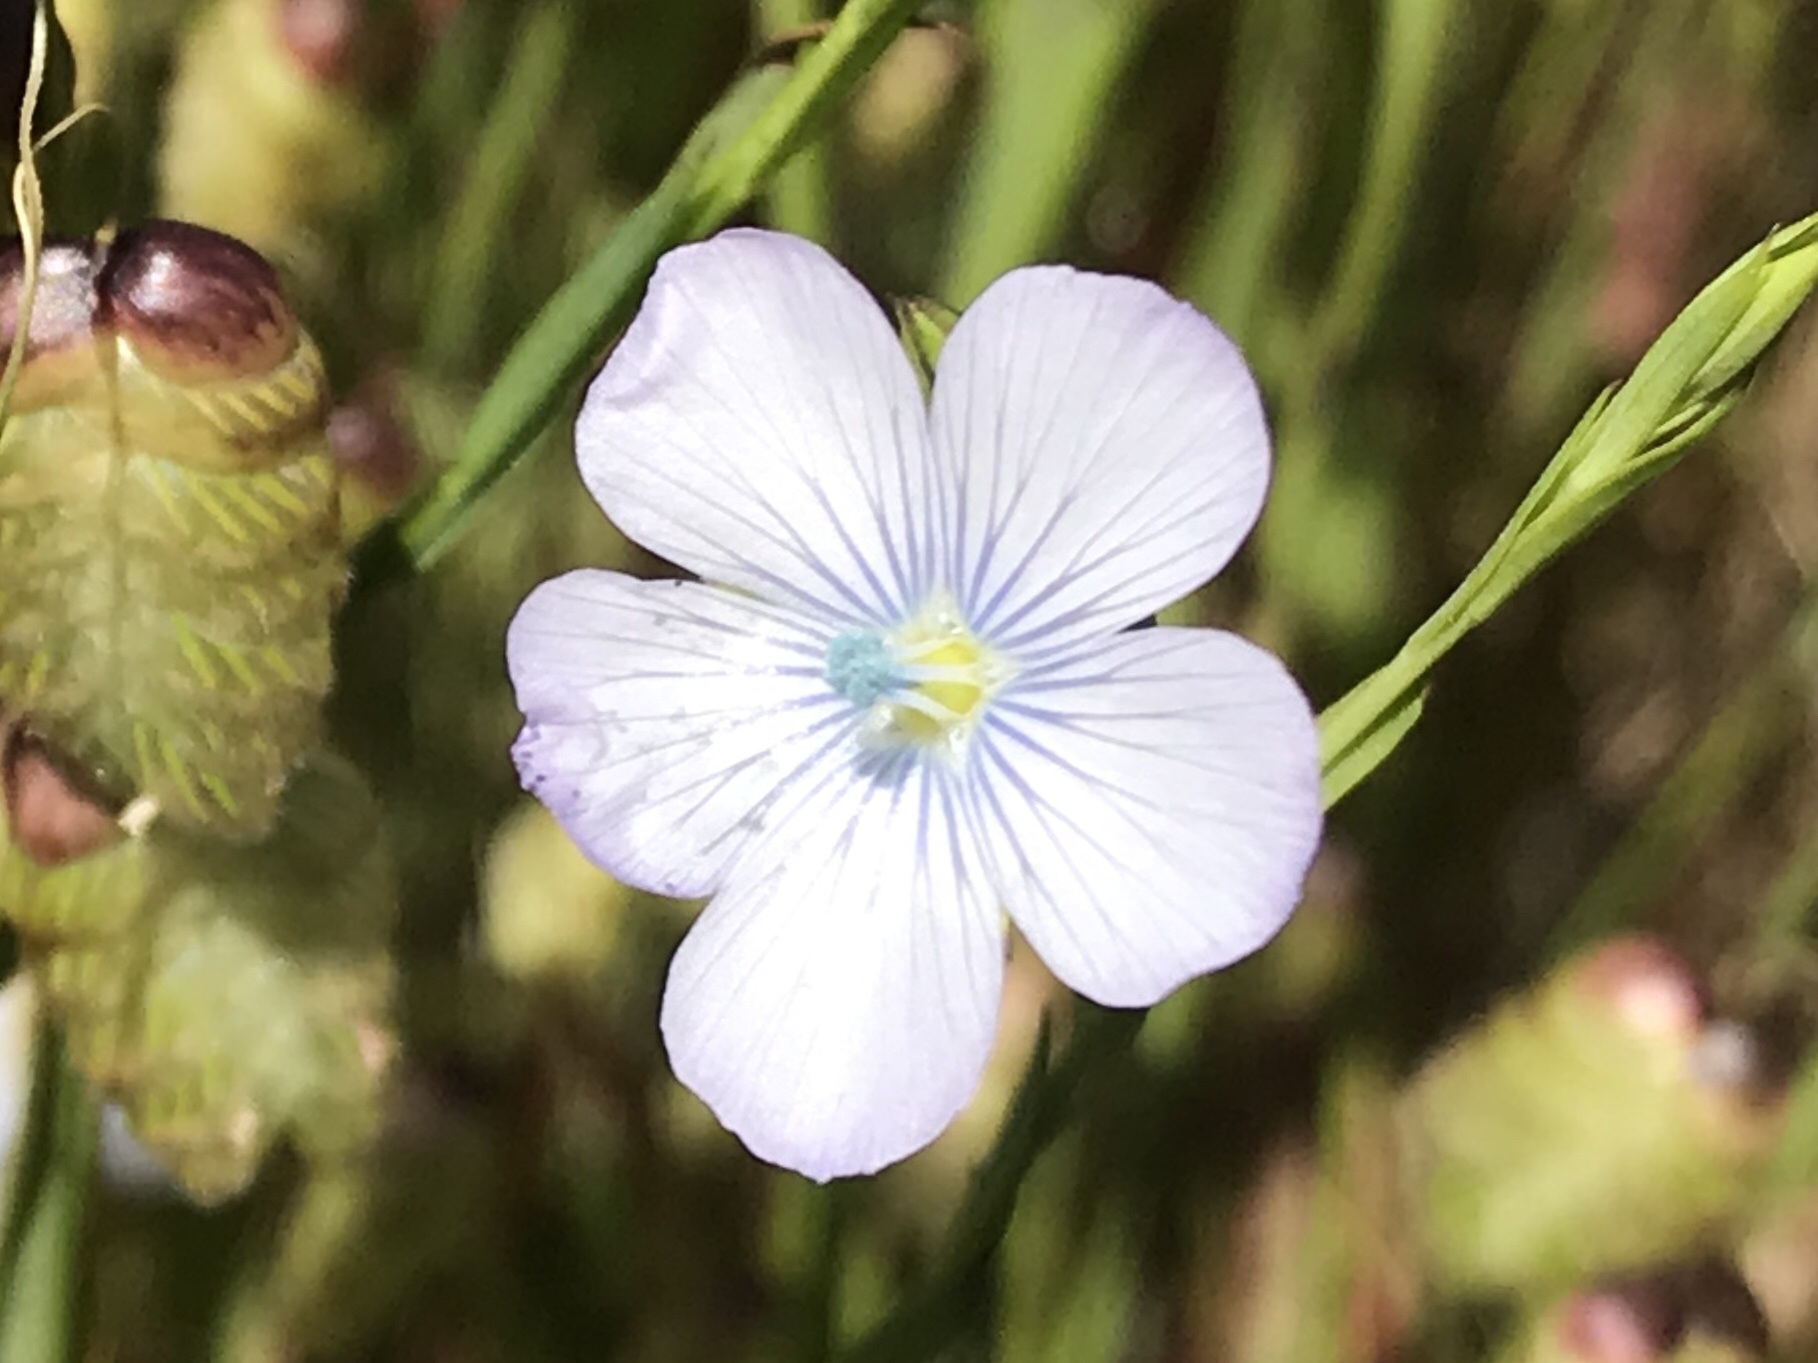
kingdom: Plantae
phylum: Tracheophyta
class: Magnoliopsida
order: Malpighiales
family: Linaceae
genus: Linum
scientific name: Linum bienne
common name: Pale flax
